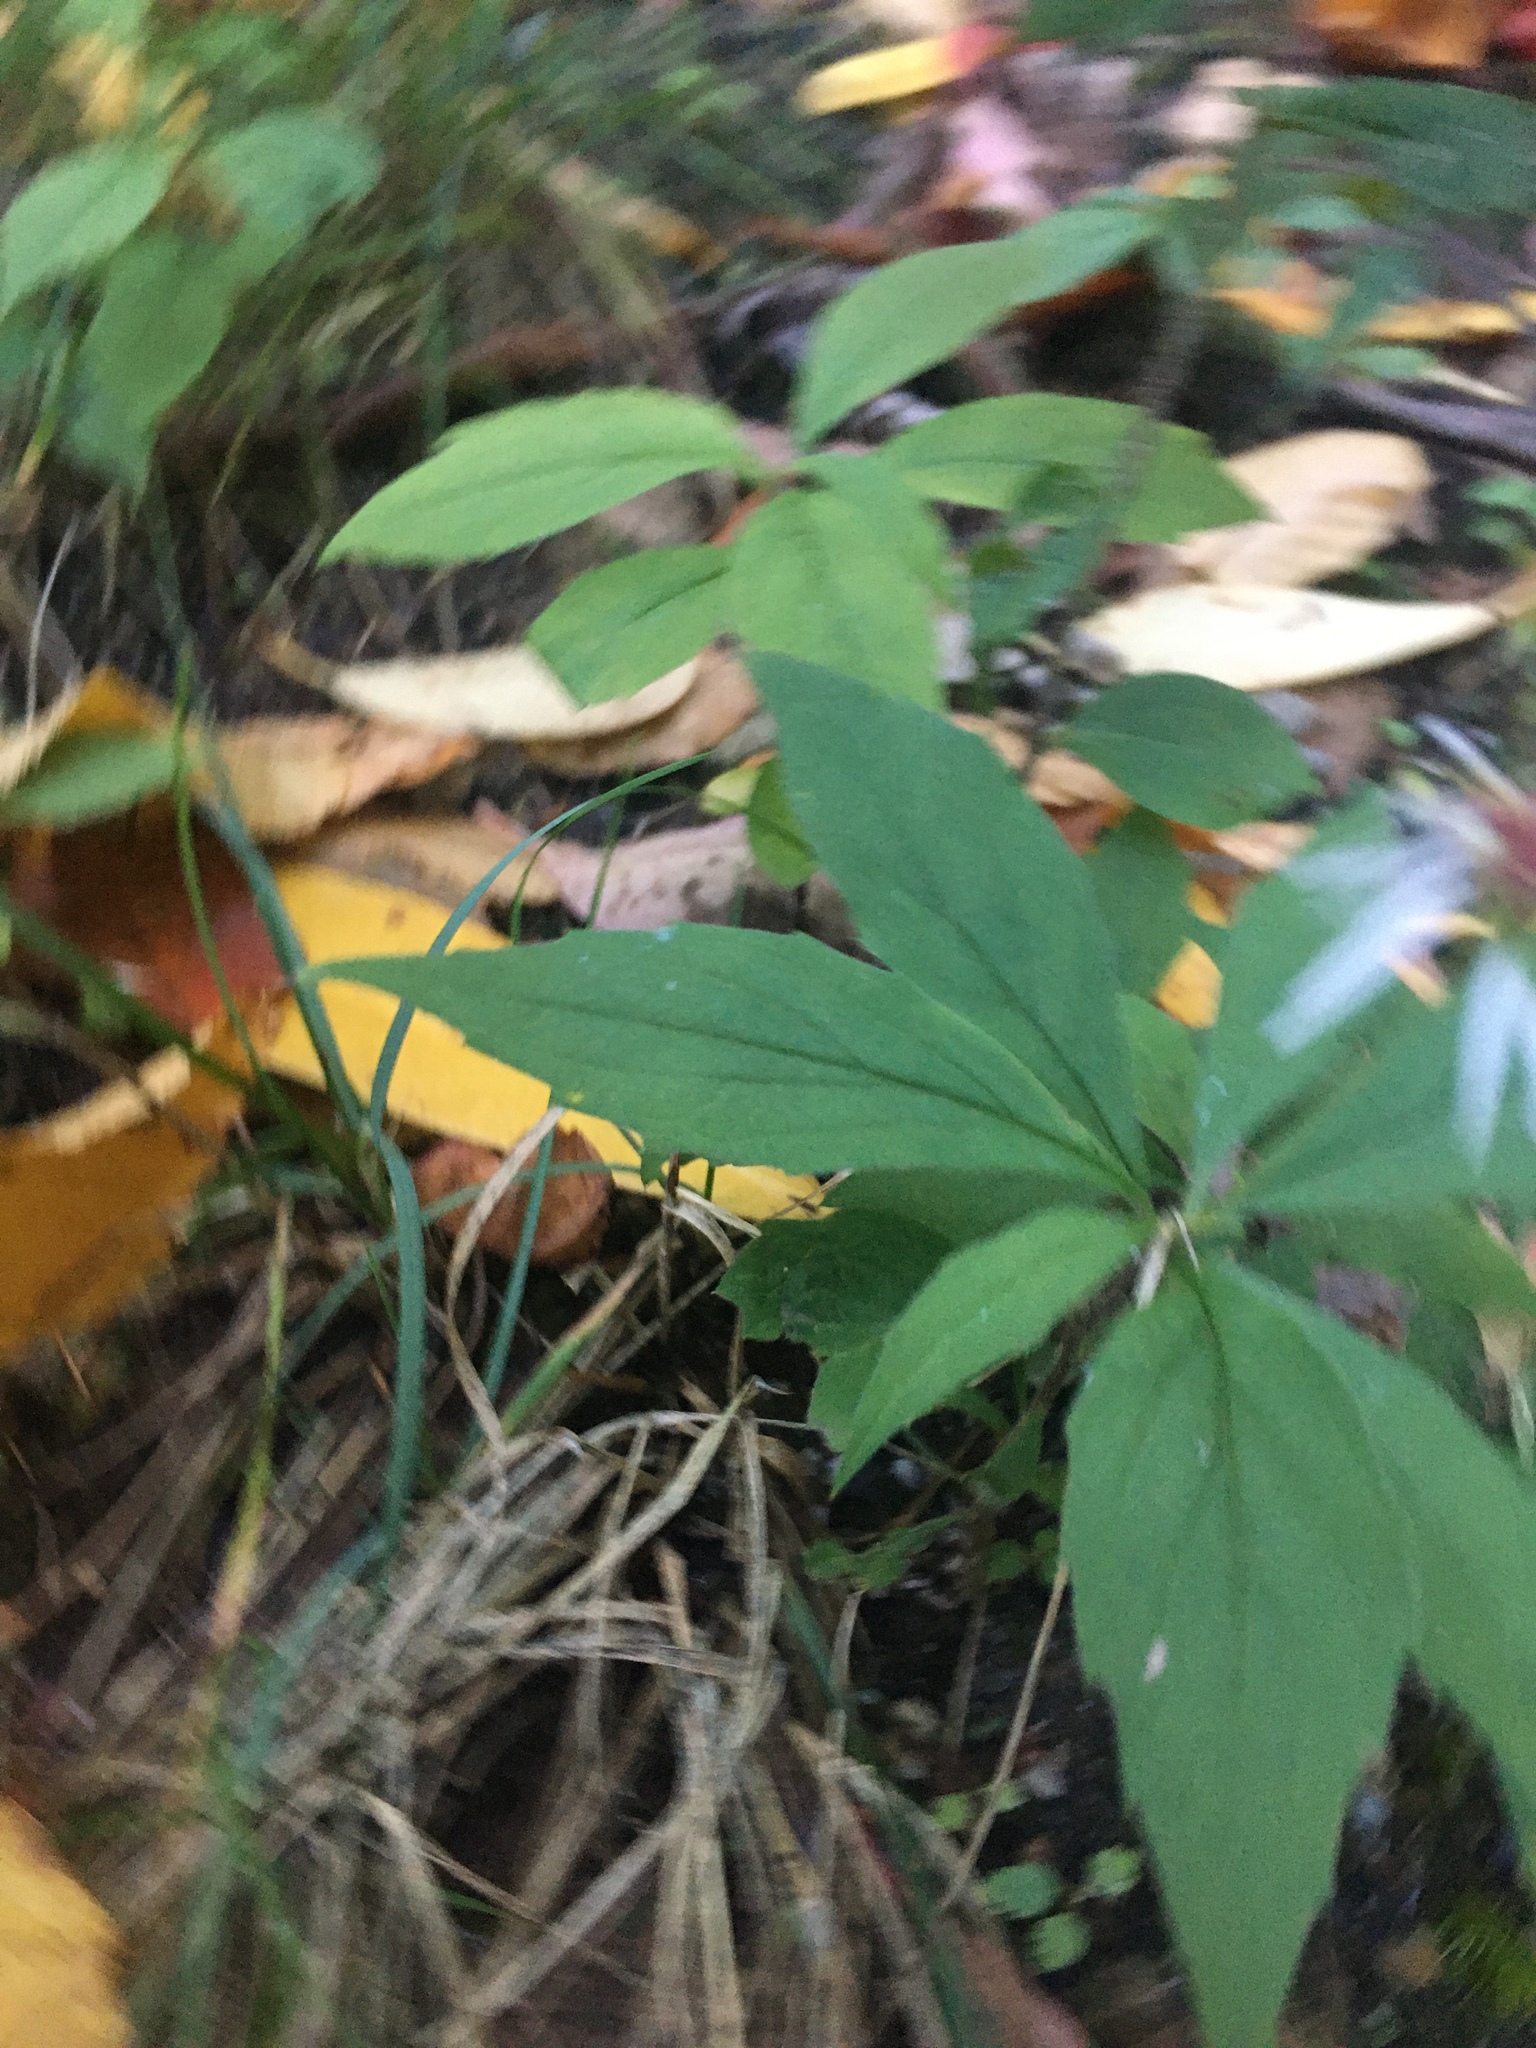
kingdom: Plantae
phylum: Tracheophyta
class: Magnoliopsida
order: Asterales
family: Asteraceae
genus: Oclemena
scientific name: Oclemena acuminata
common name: Mountain aster
